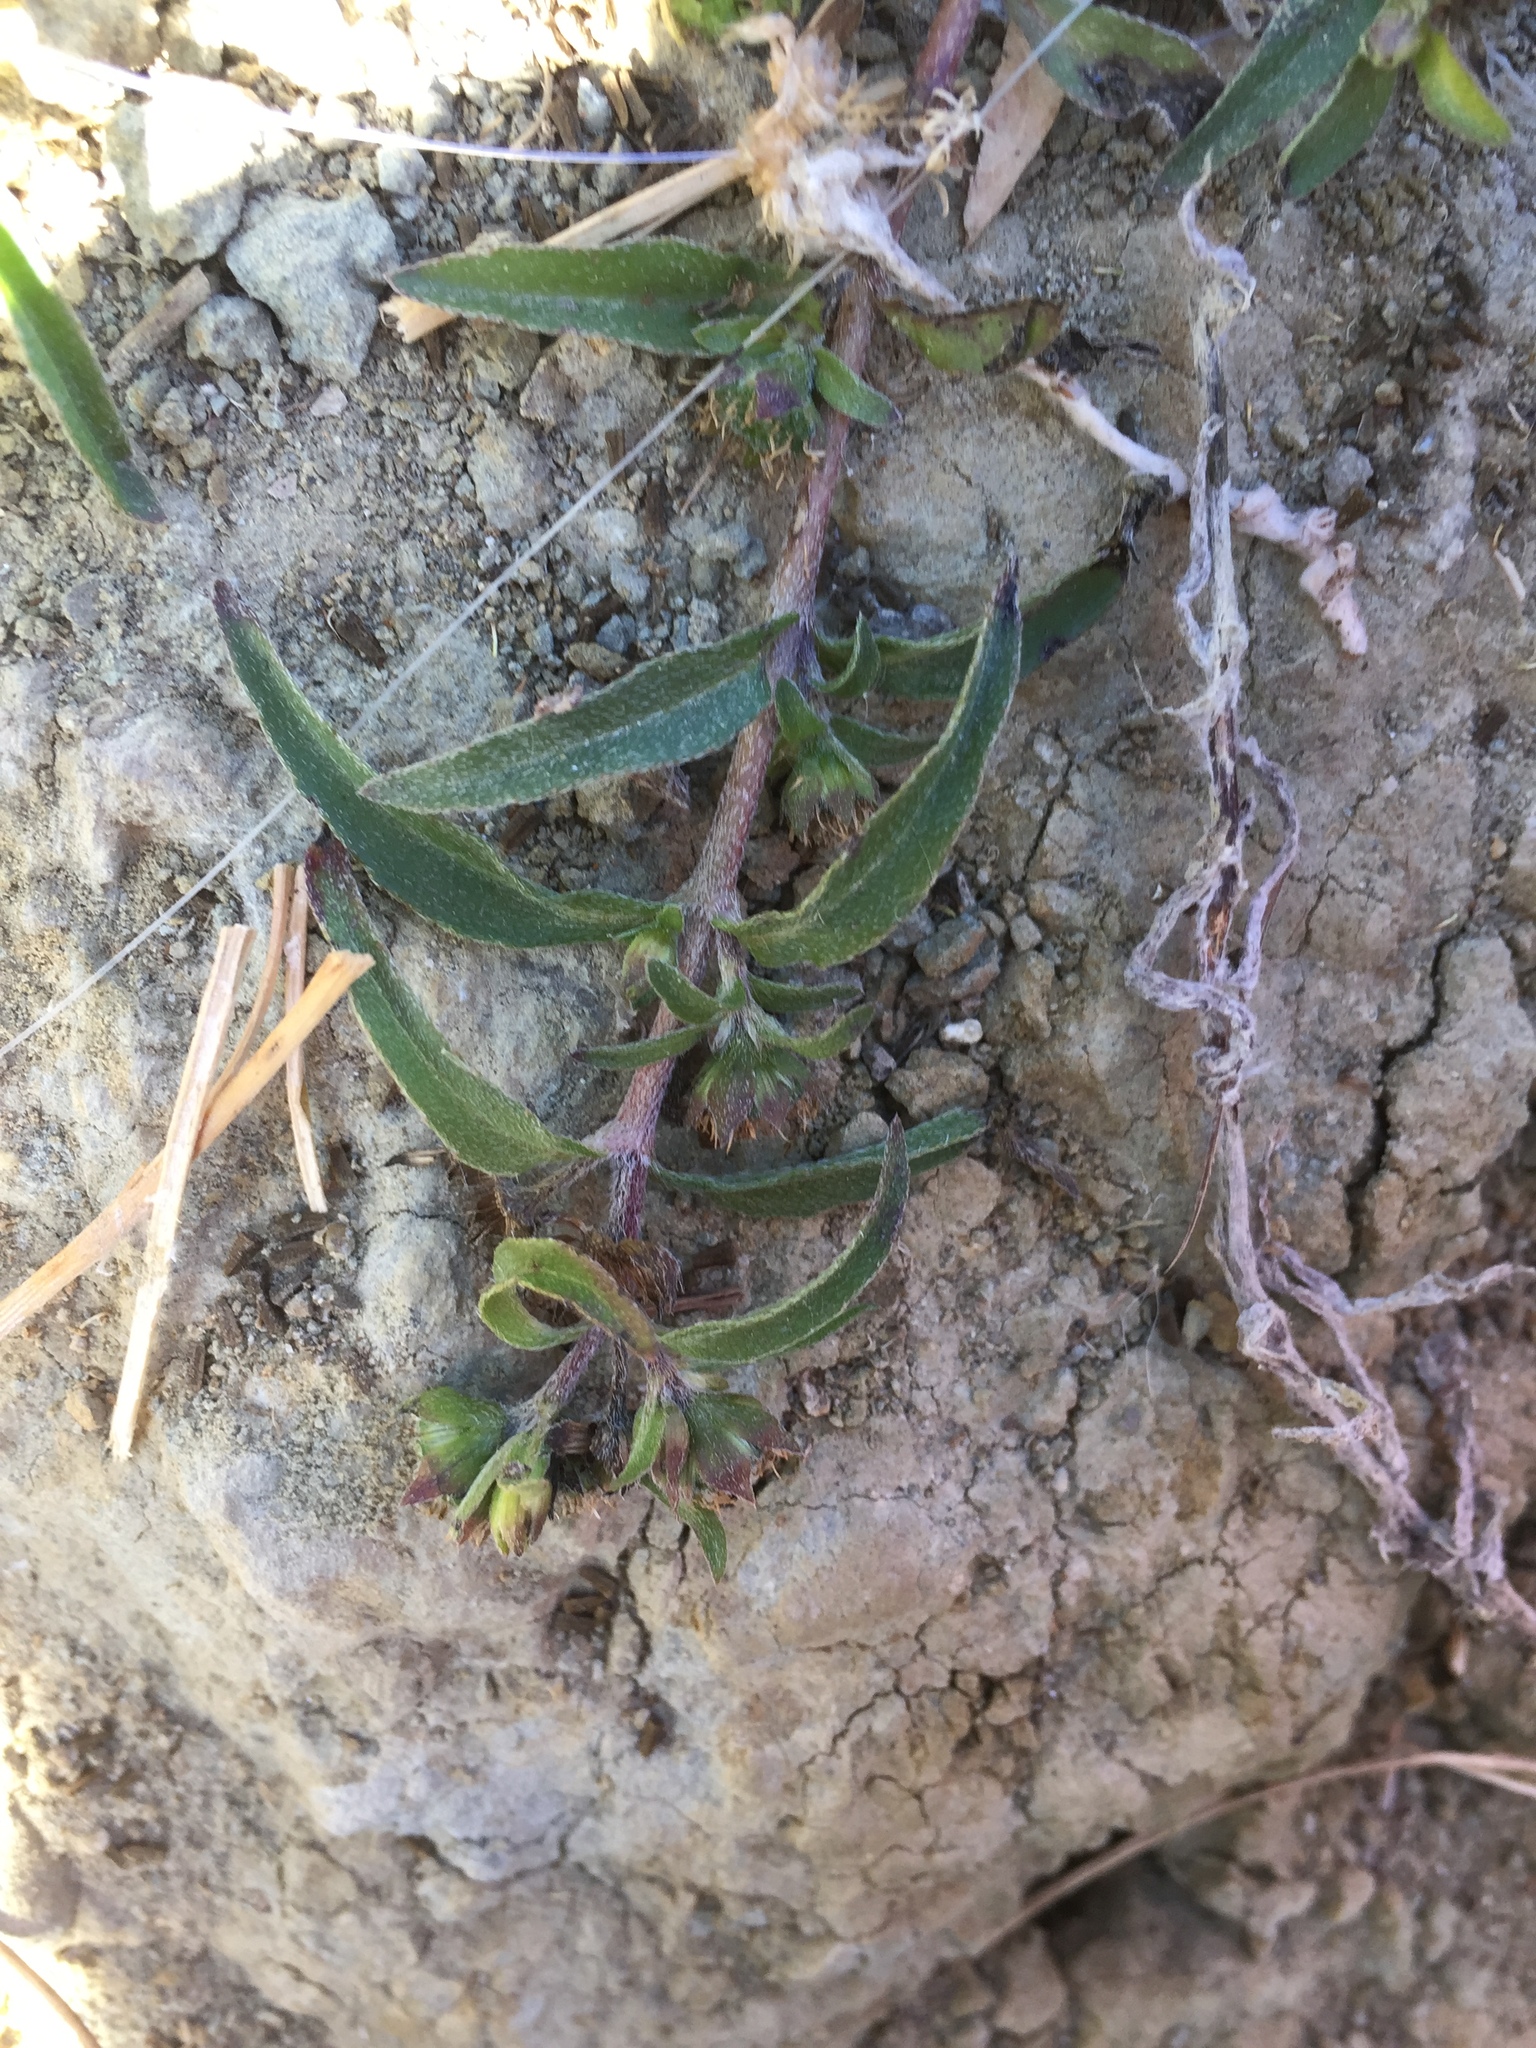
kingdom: Plantae
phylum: Tracheophyta
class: Magnoliopsida
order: Asterales
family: Asteraceae
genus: Eclipta
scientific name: Eclipta prostrata
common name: False daisy
